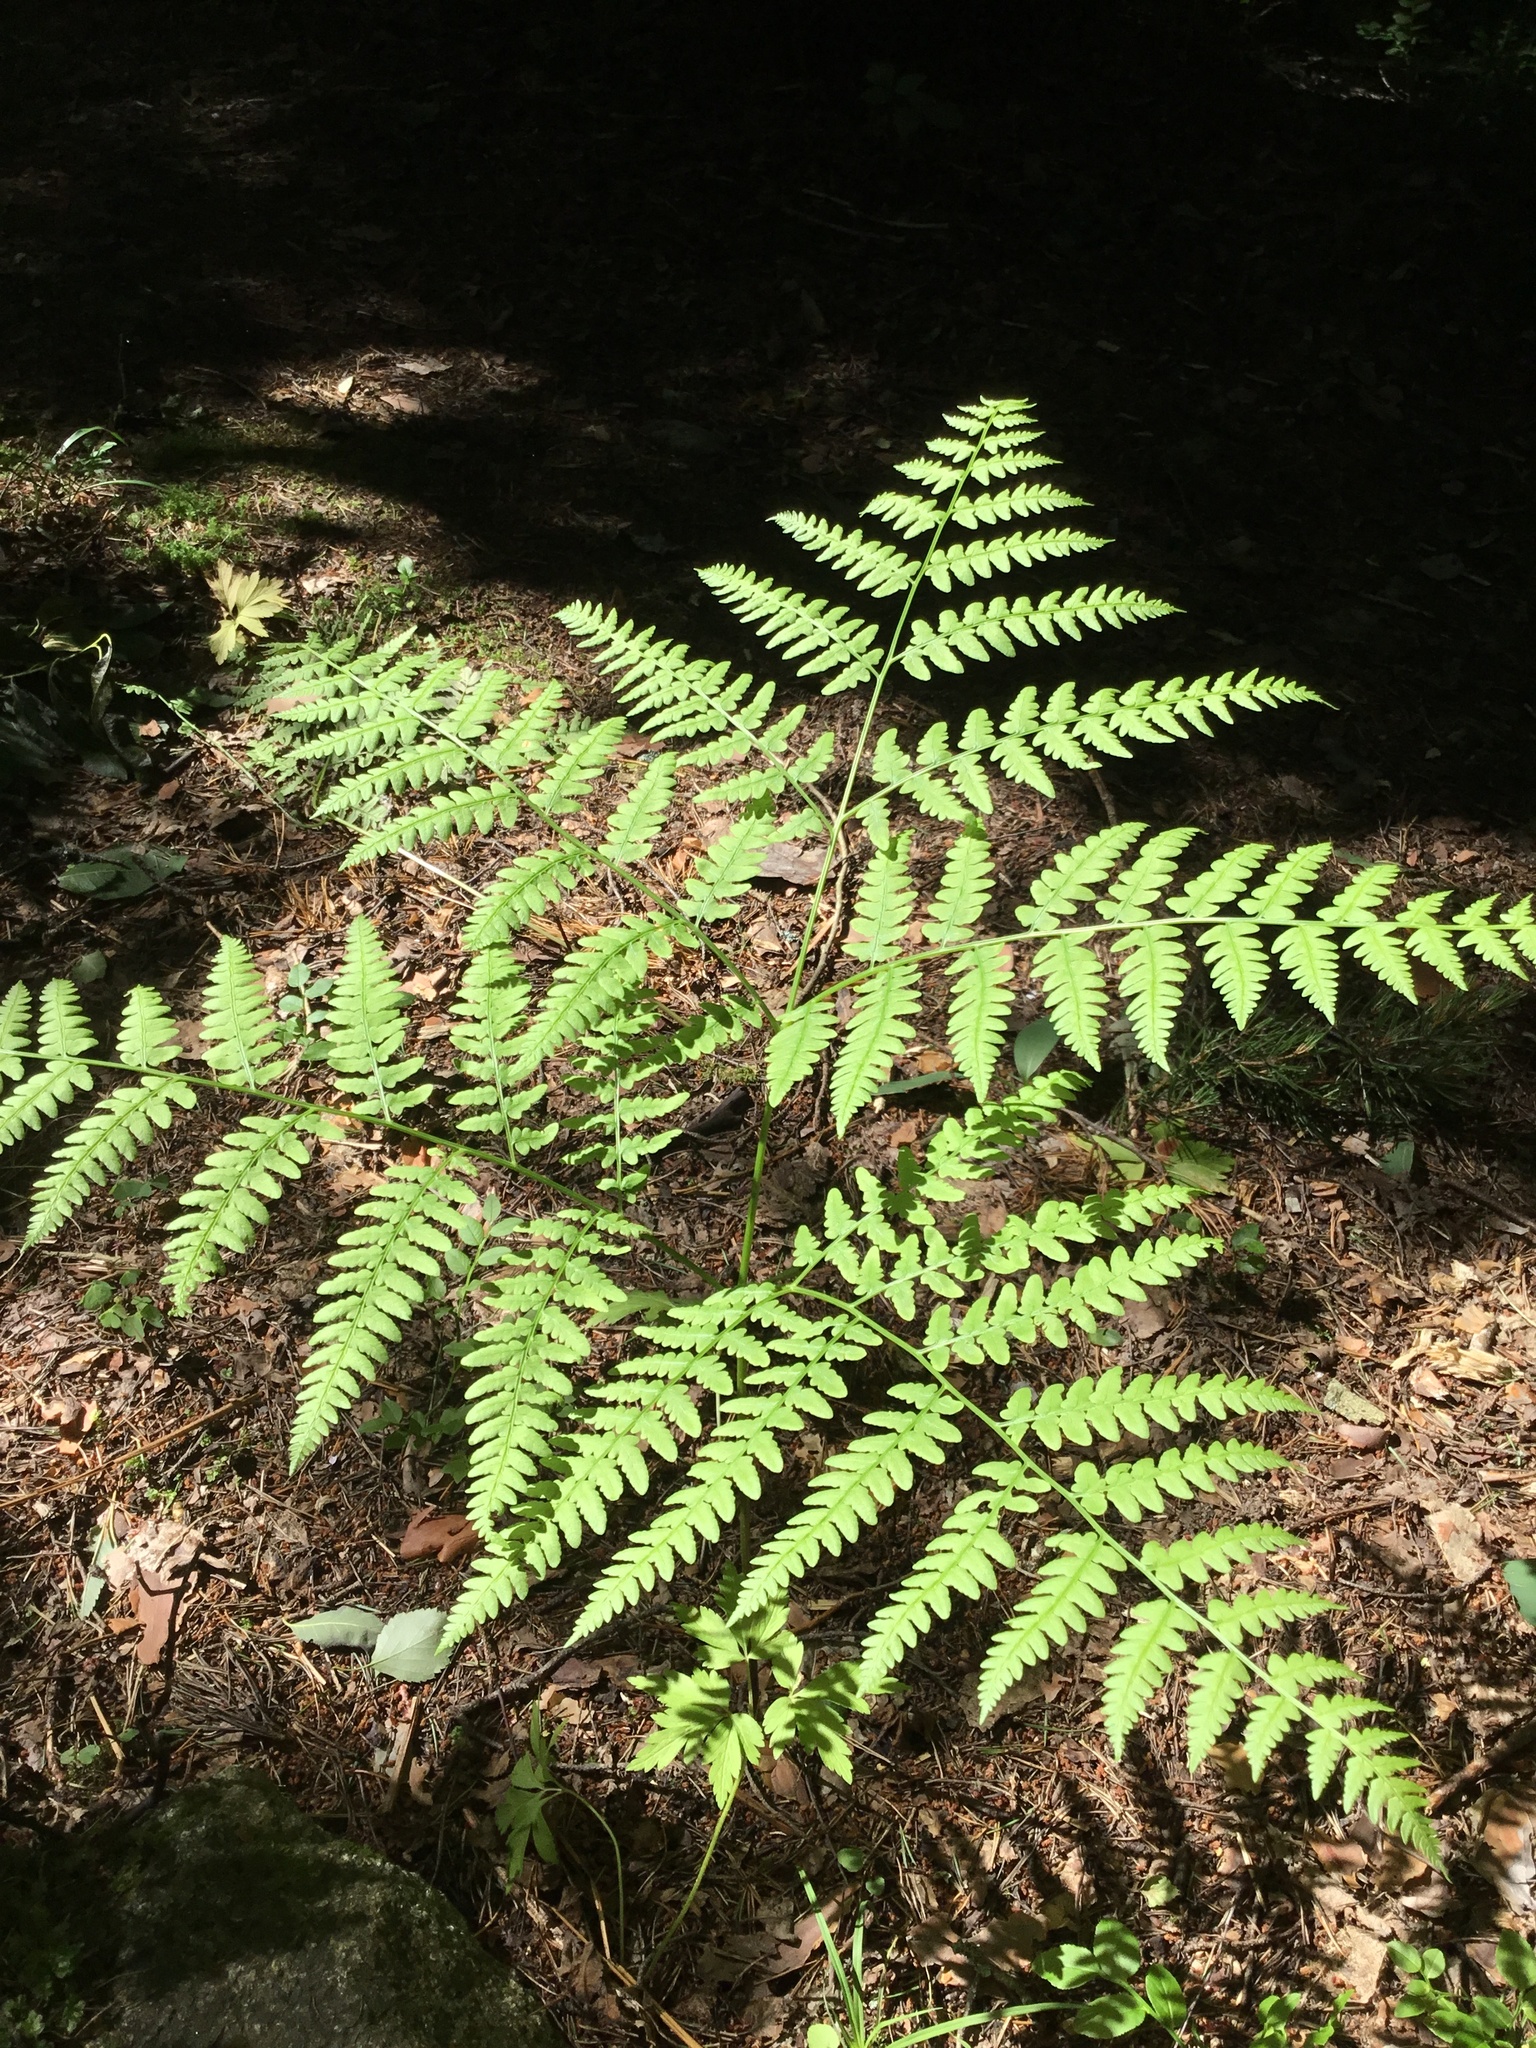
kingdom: Plantae
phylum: Tracheophyta
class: Polypodiopsida
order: Polypodiales
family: Dennstaedtiaceae
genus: Pteridium
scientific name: Pteridium aquilinum
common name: Bracken
